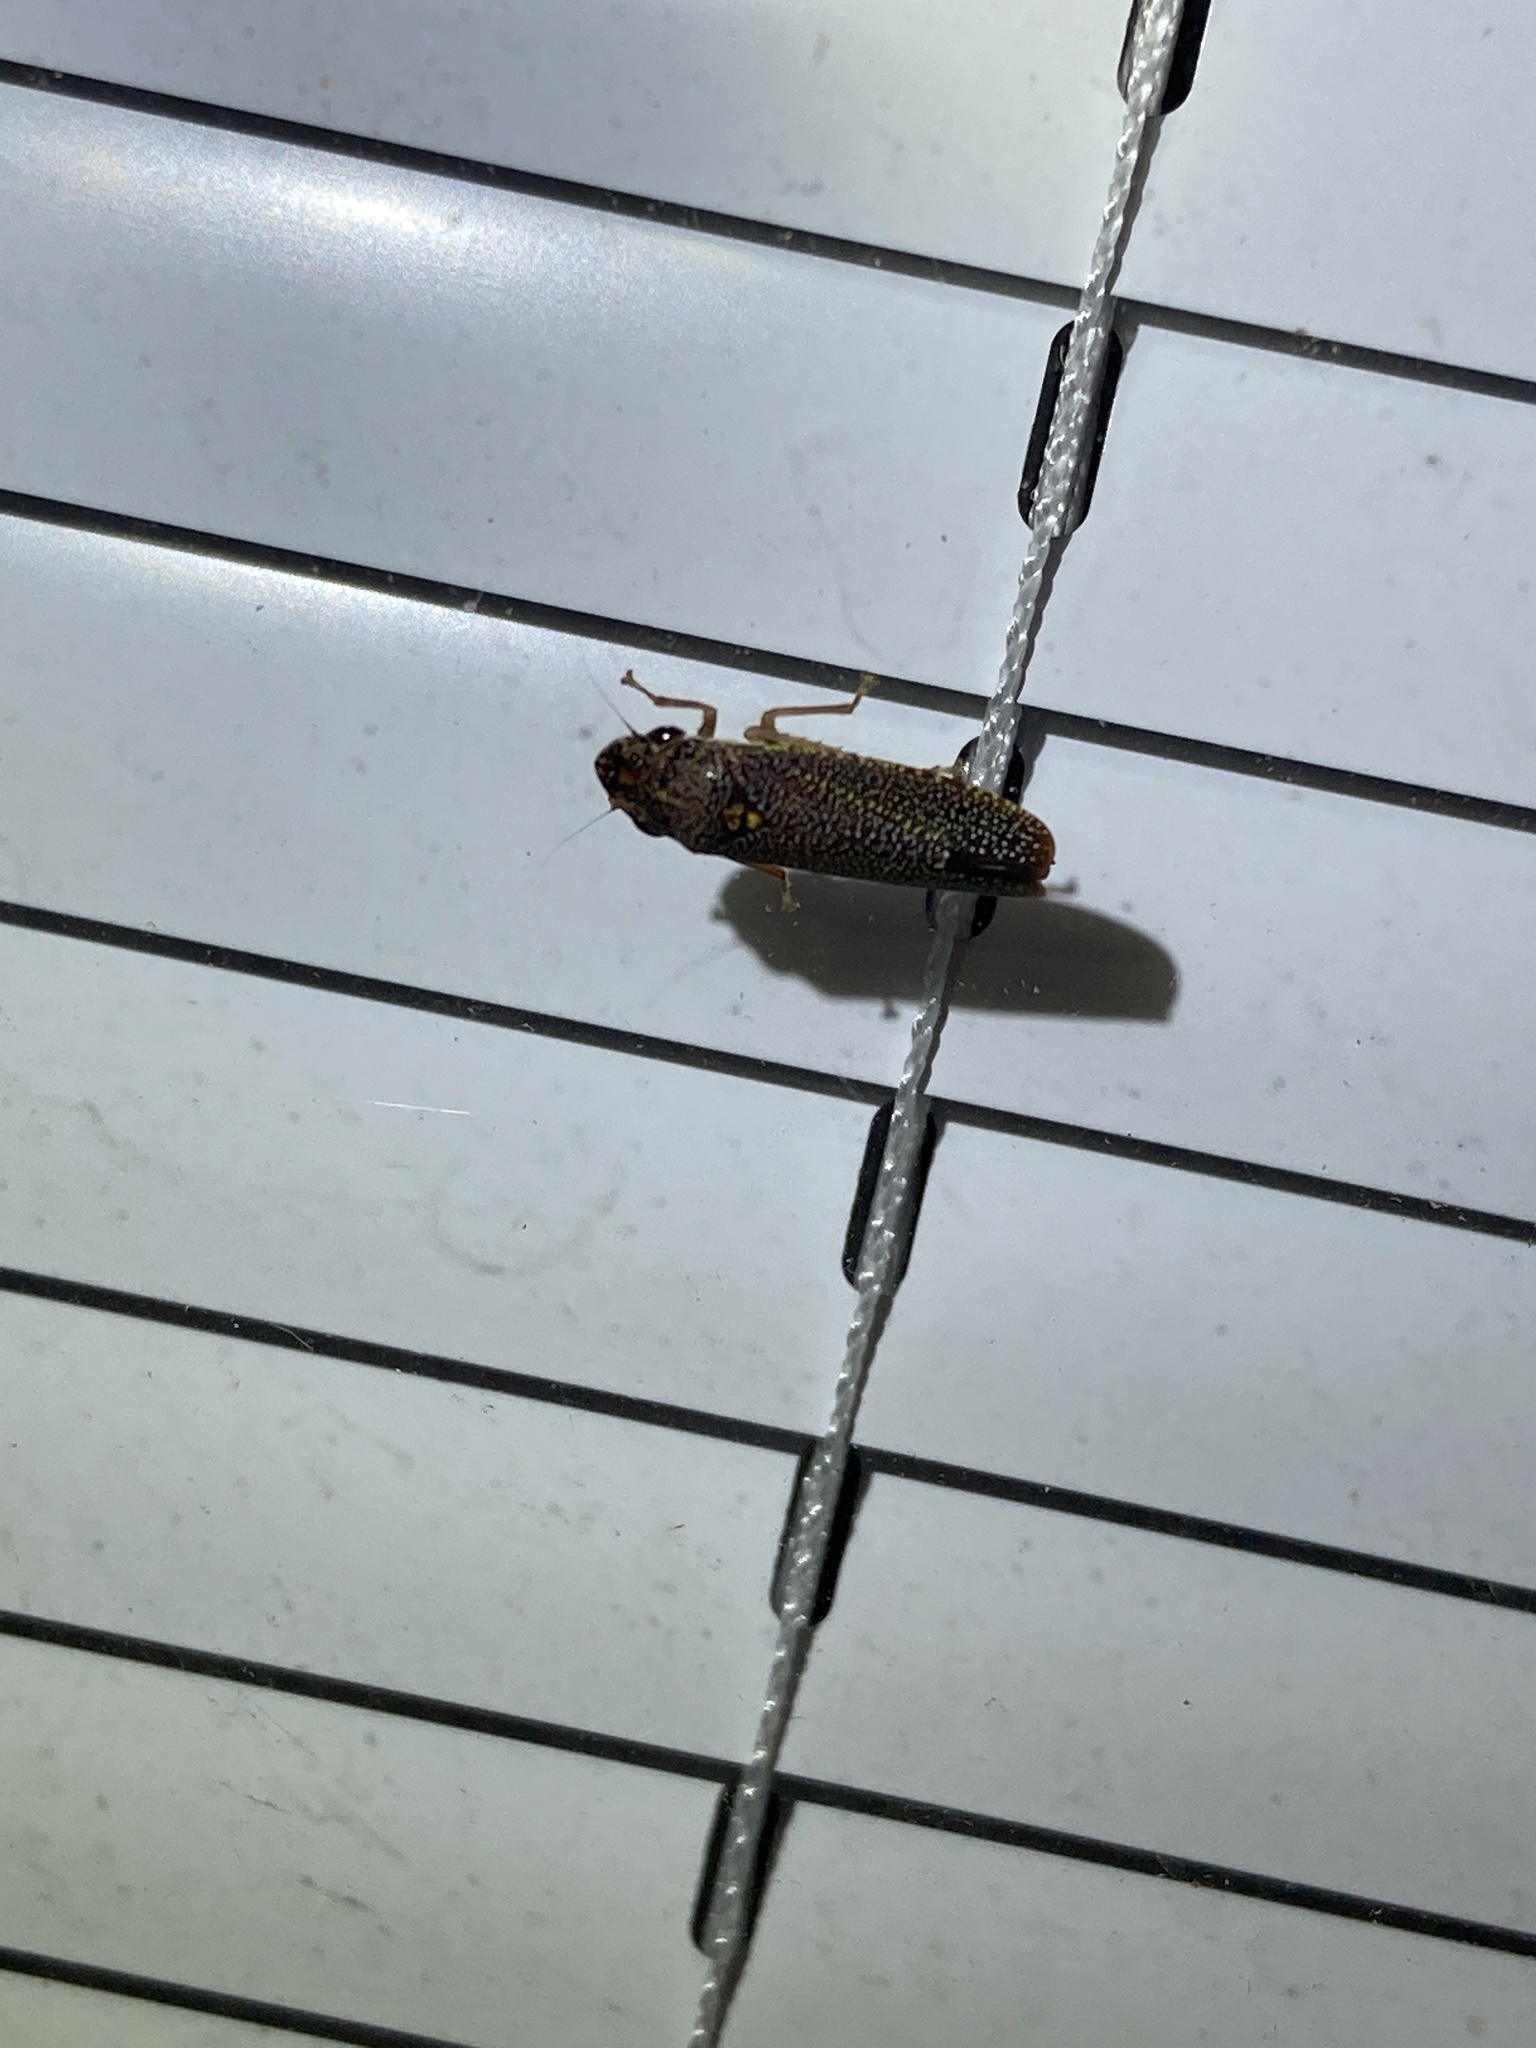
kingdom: Animalia
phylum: Arthropoda
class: Insecta
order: Hemiptera
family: Cicadellidae
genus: Paraulacizes
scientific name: Paraulacizes irrorata
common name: Speckled sharpshooter
